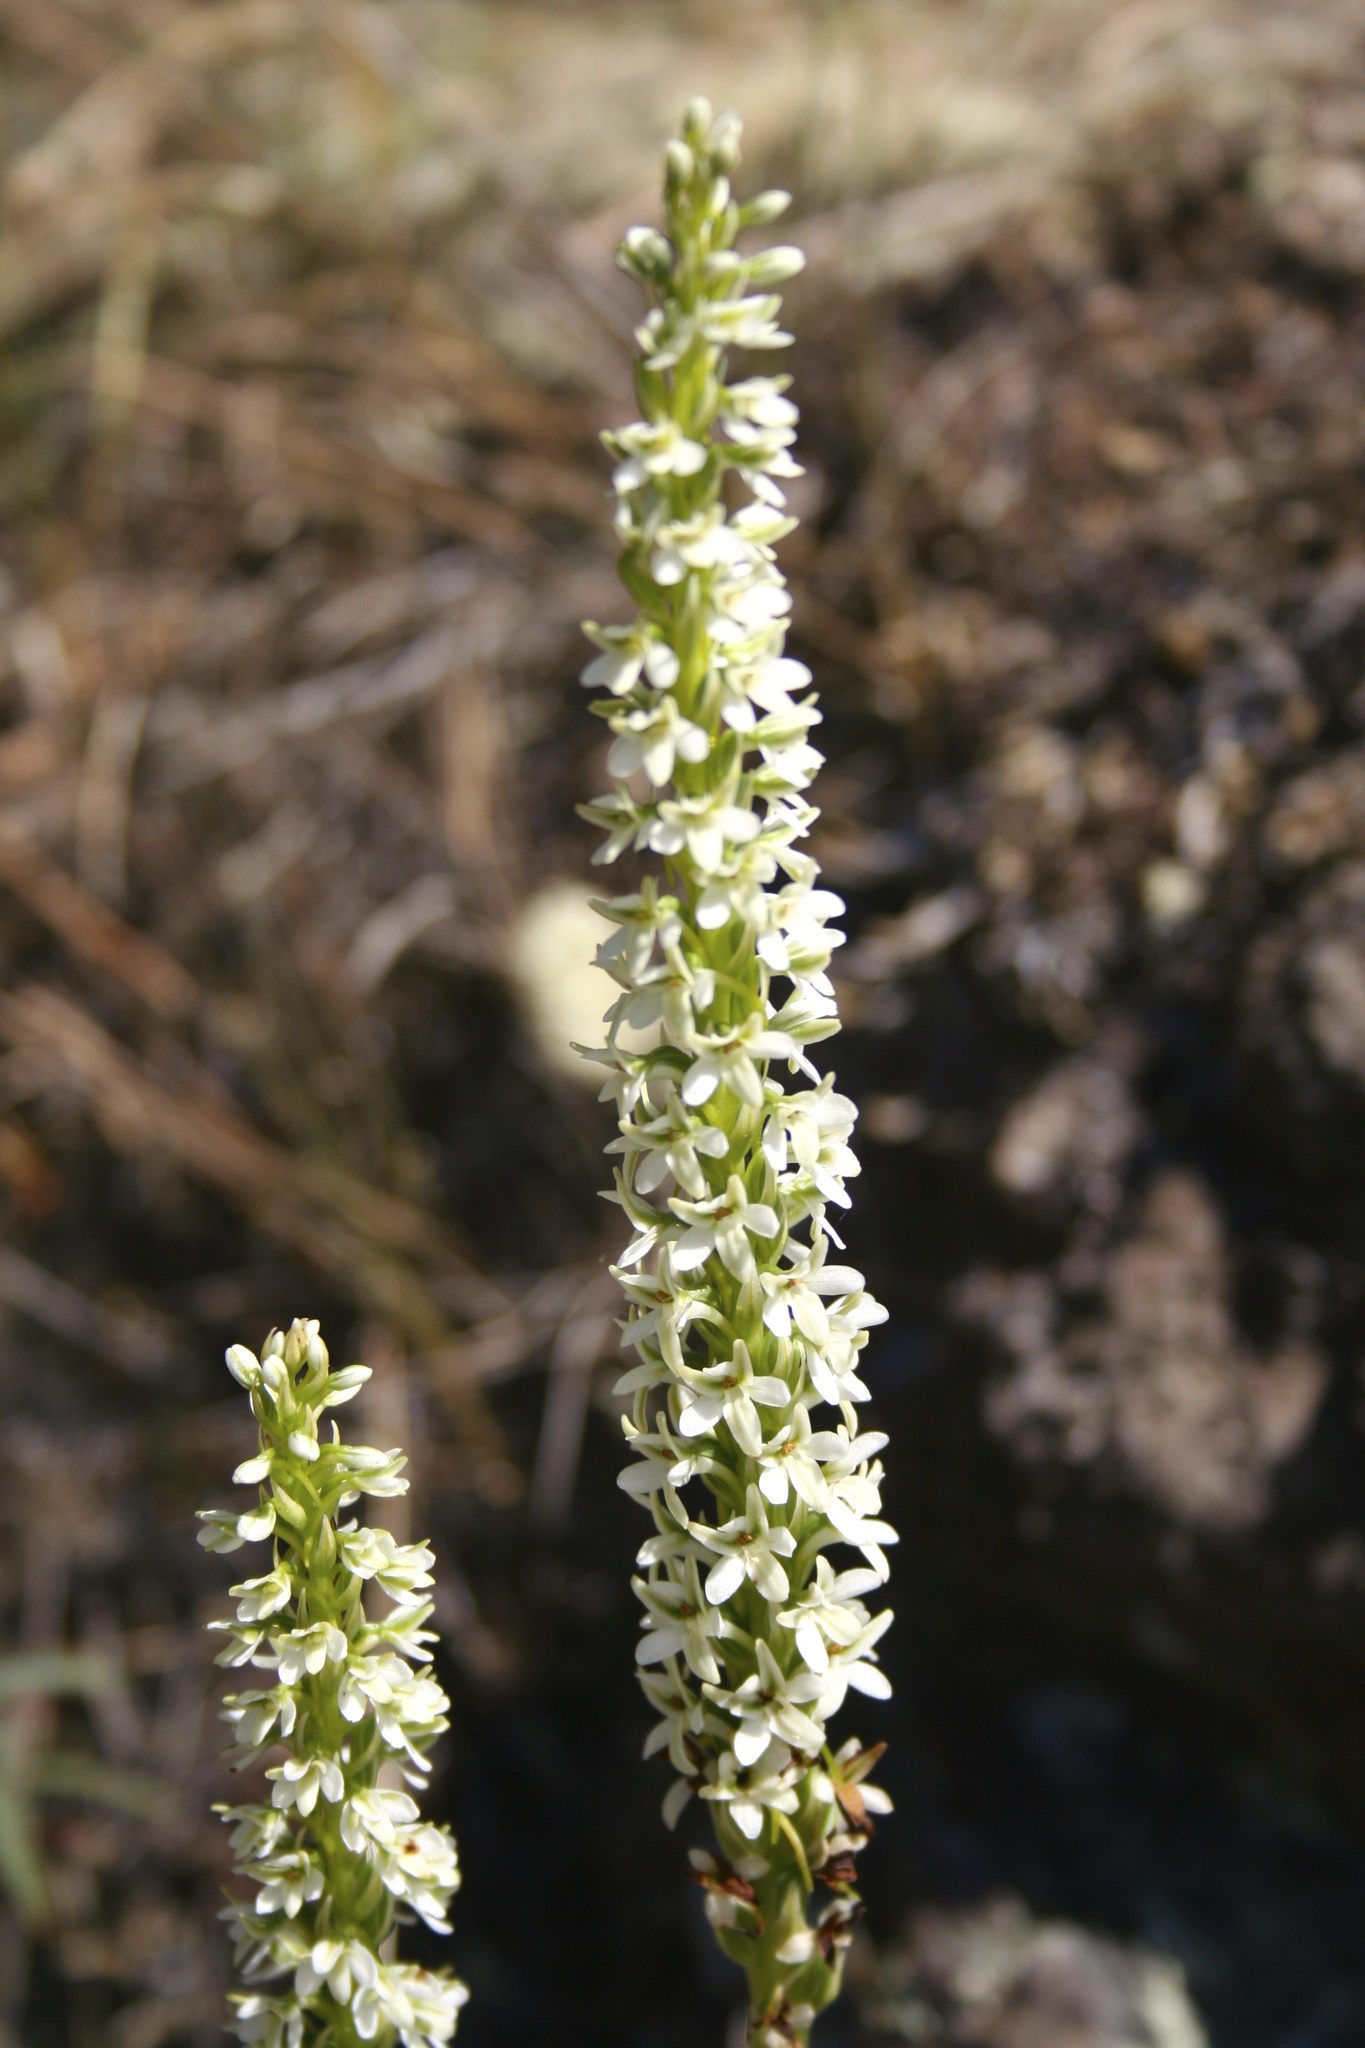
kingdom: Plantae
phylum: Tracheophyta
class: Liliopsida
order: Asparagales
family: Orchidaceae
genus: Platanthera
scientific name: Platanthera elegans
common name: Coast piperia
